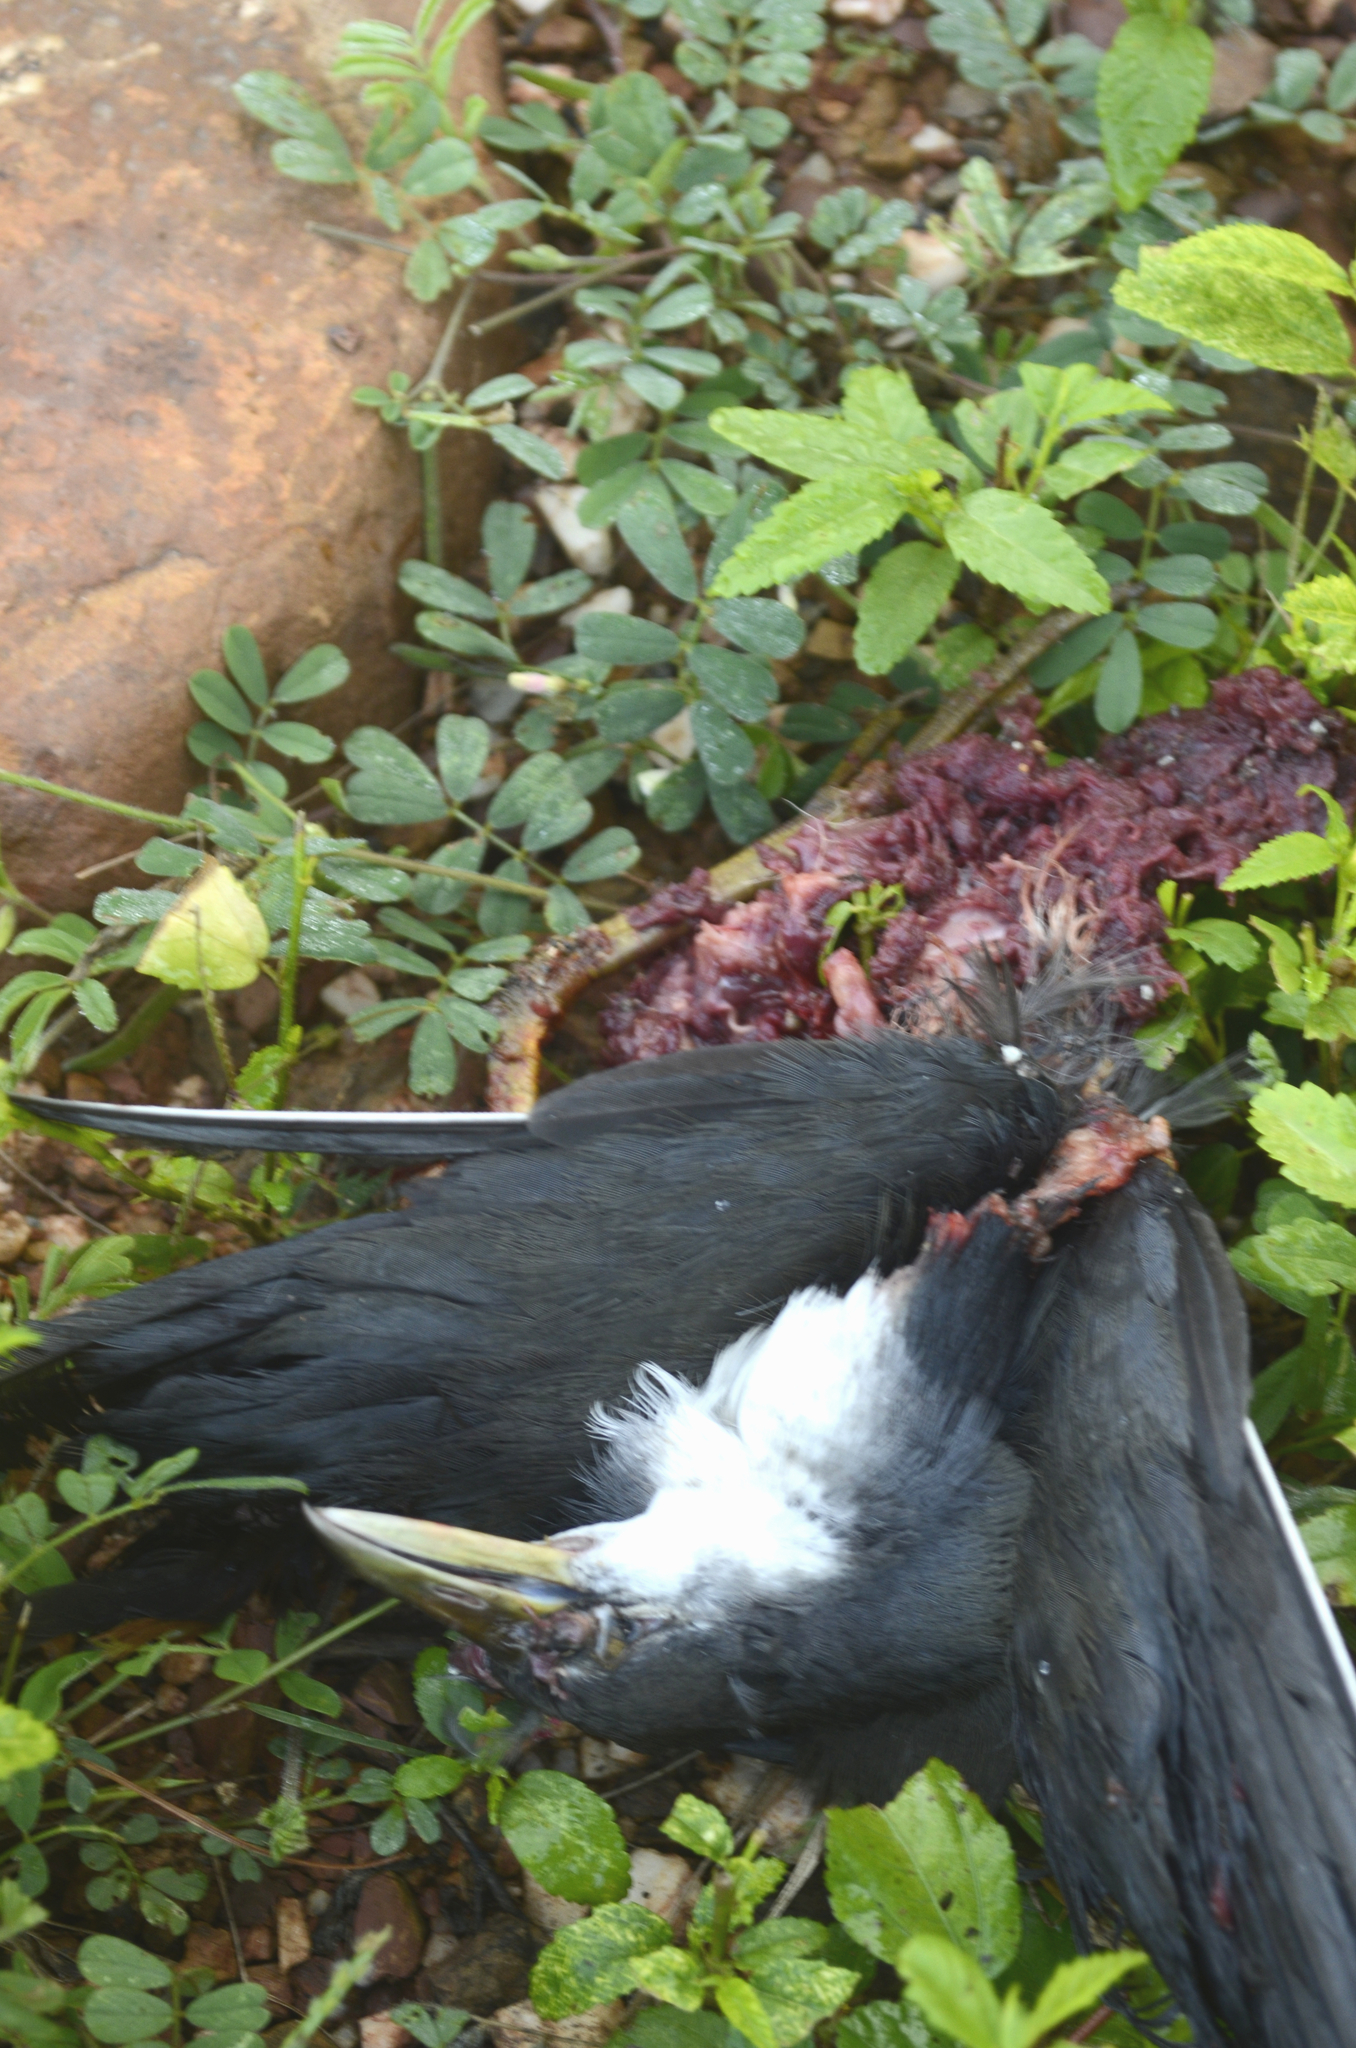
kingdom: Animalia
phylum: Chordata
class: Aves
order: Gruiformes
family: Rallidae
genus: Amaurornis
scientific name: Amaurornis phoenicurus
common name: White-breasted waterhen
